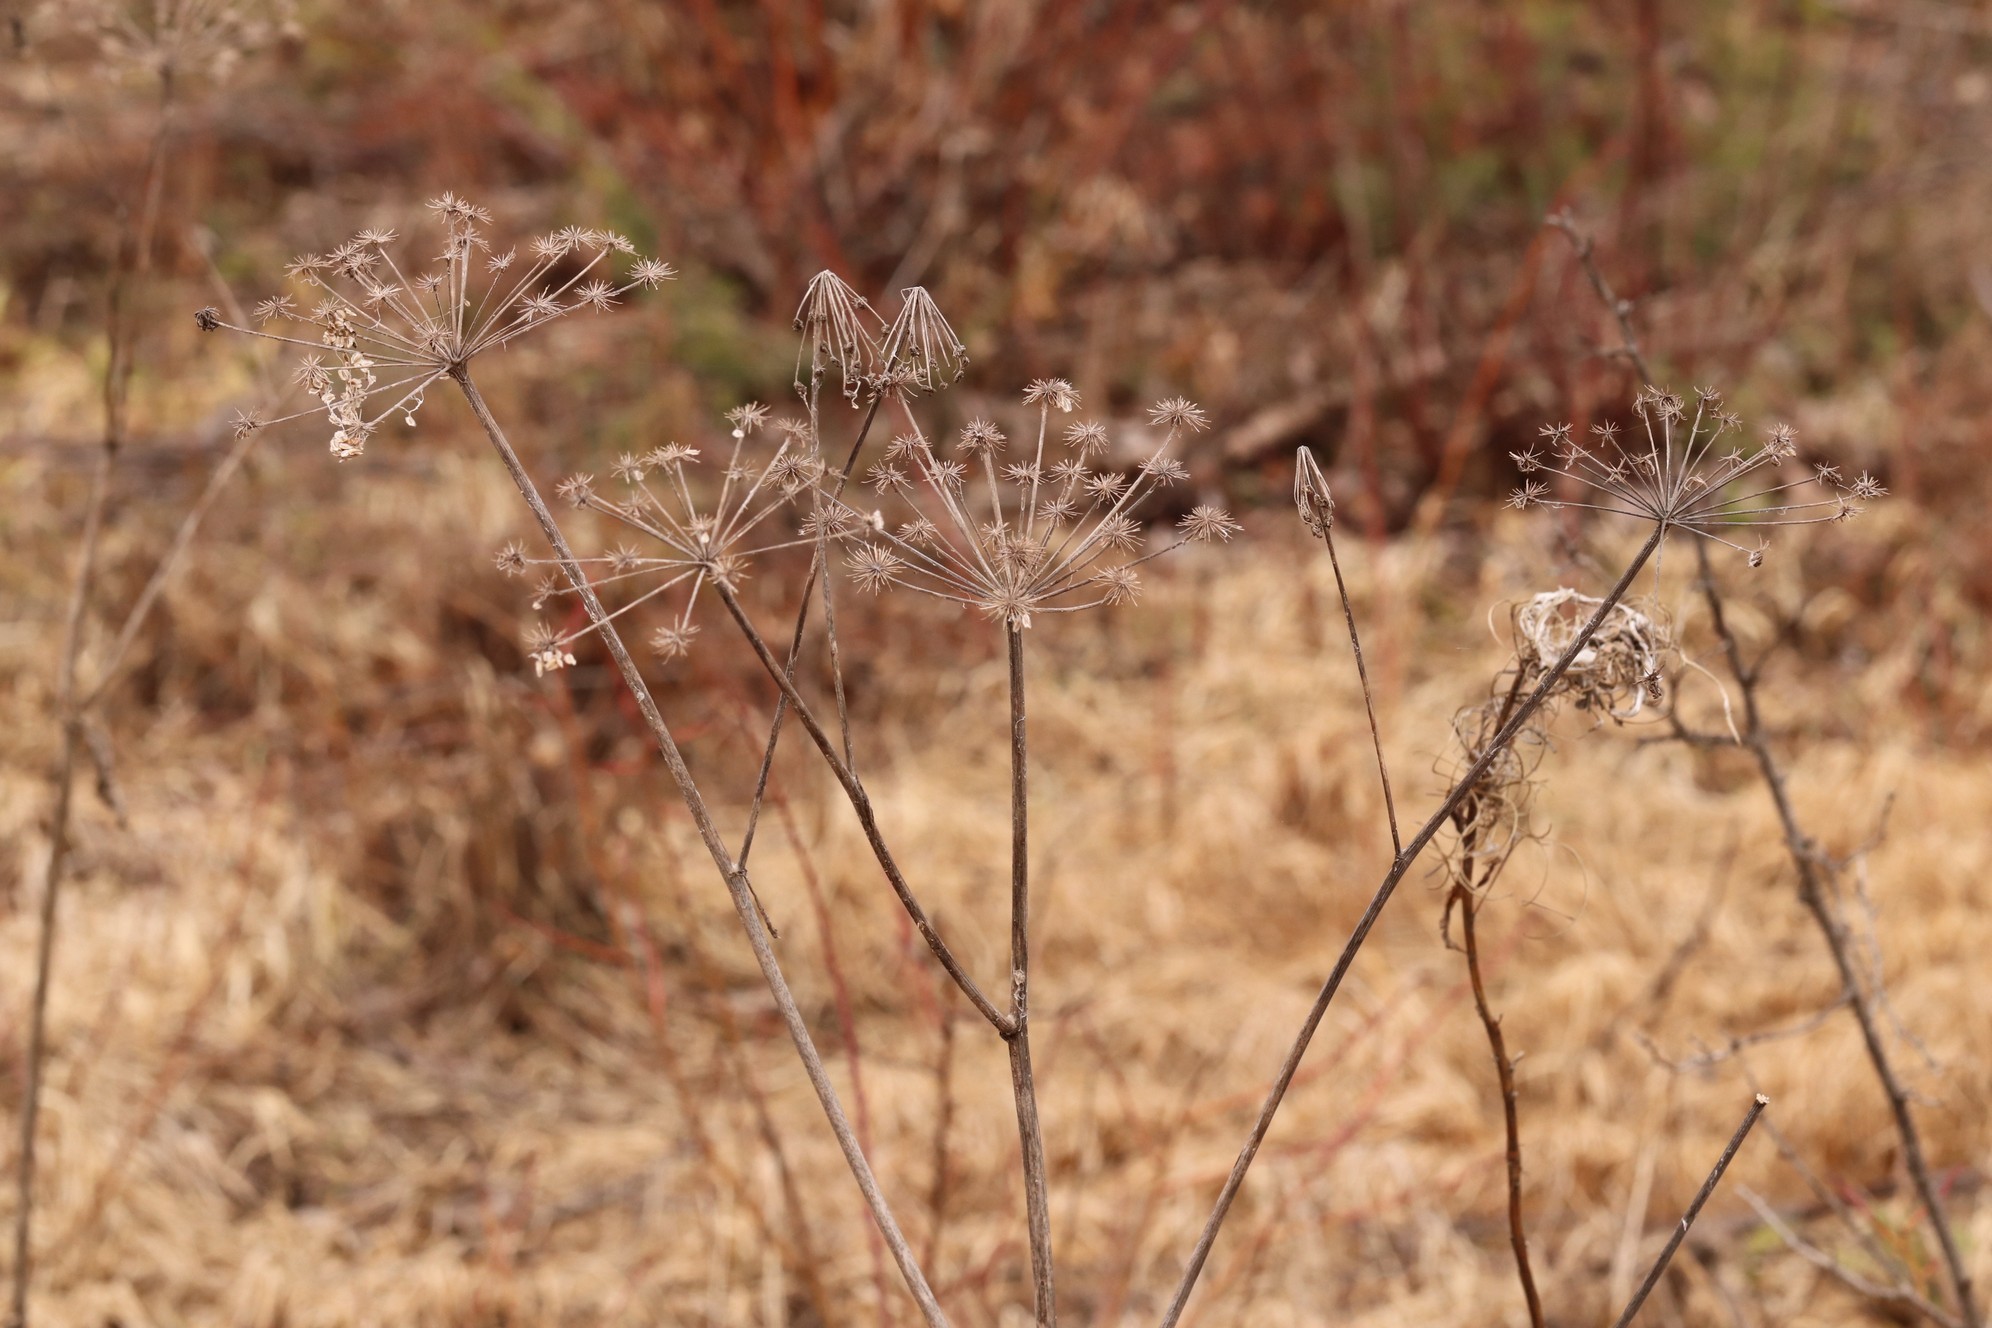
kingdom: Plantae
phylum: Tracheophyta
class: Magnoliopsida
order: Apiales
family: Apiaceae
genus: Angelica
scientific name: Angelica sylvestris
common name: Wild angelica
